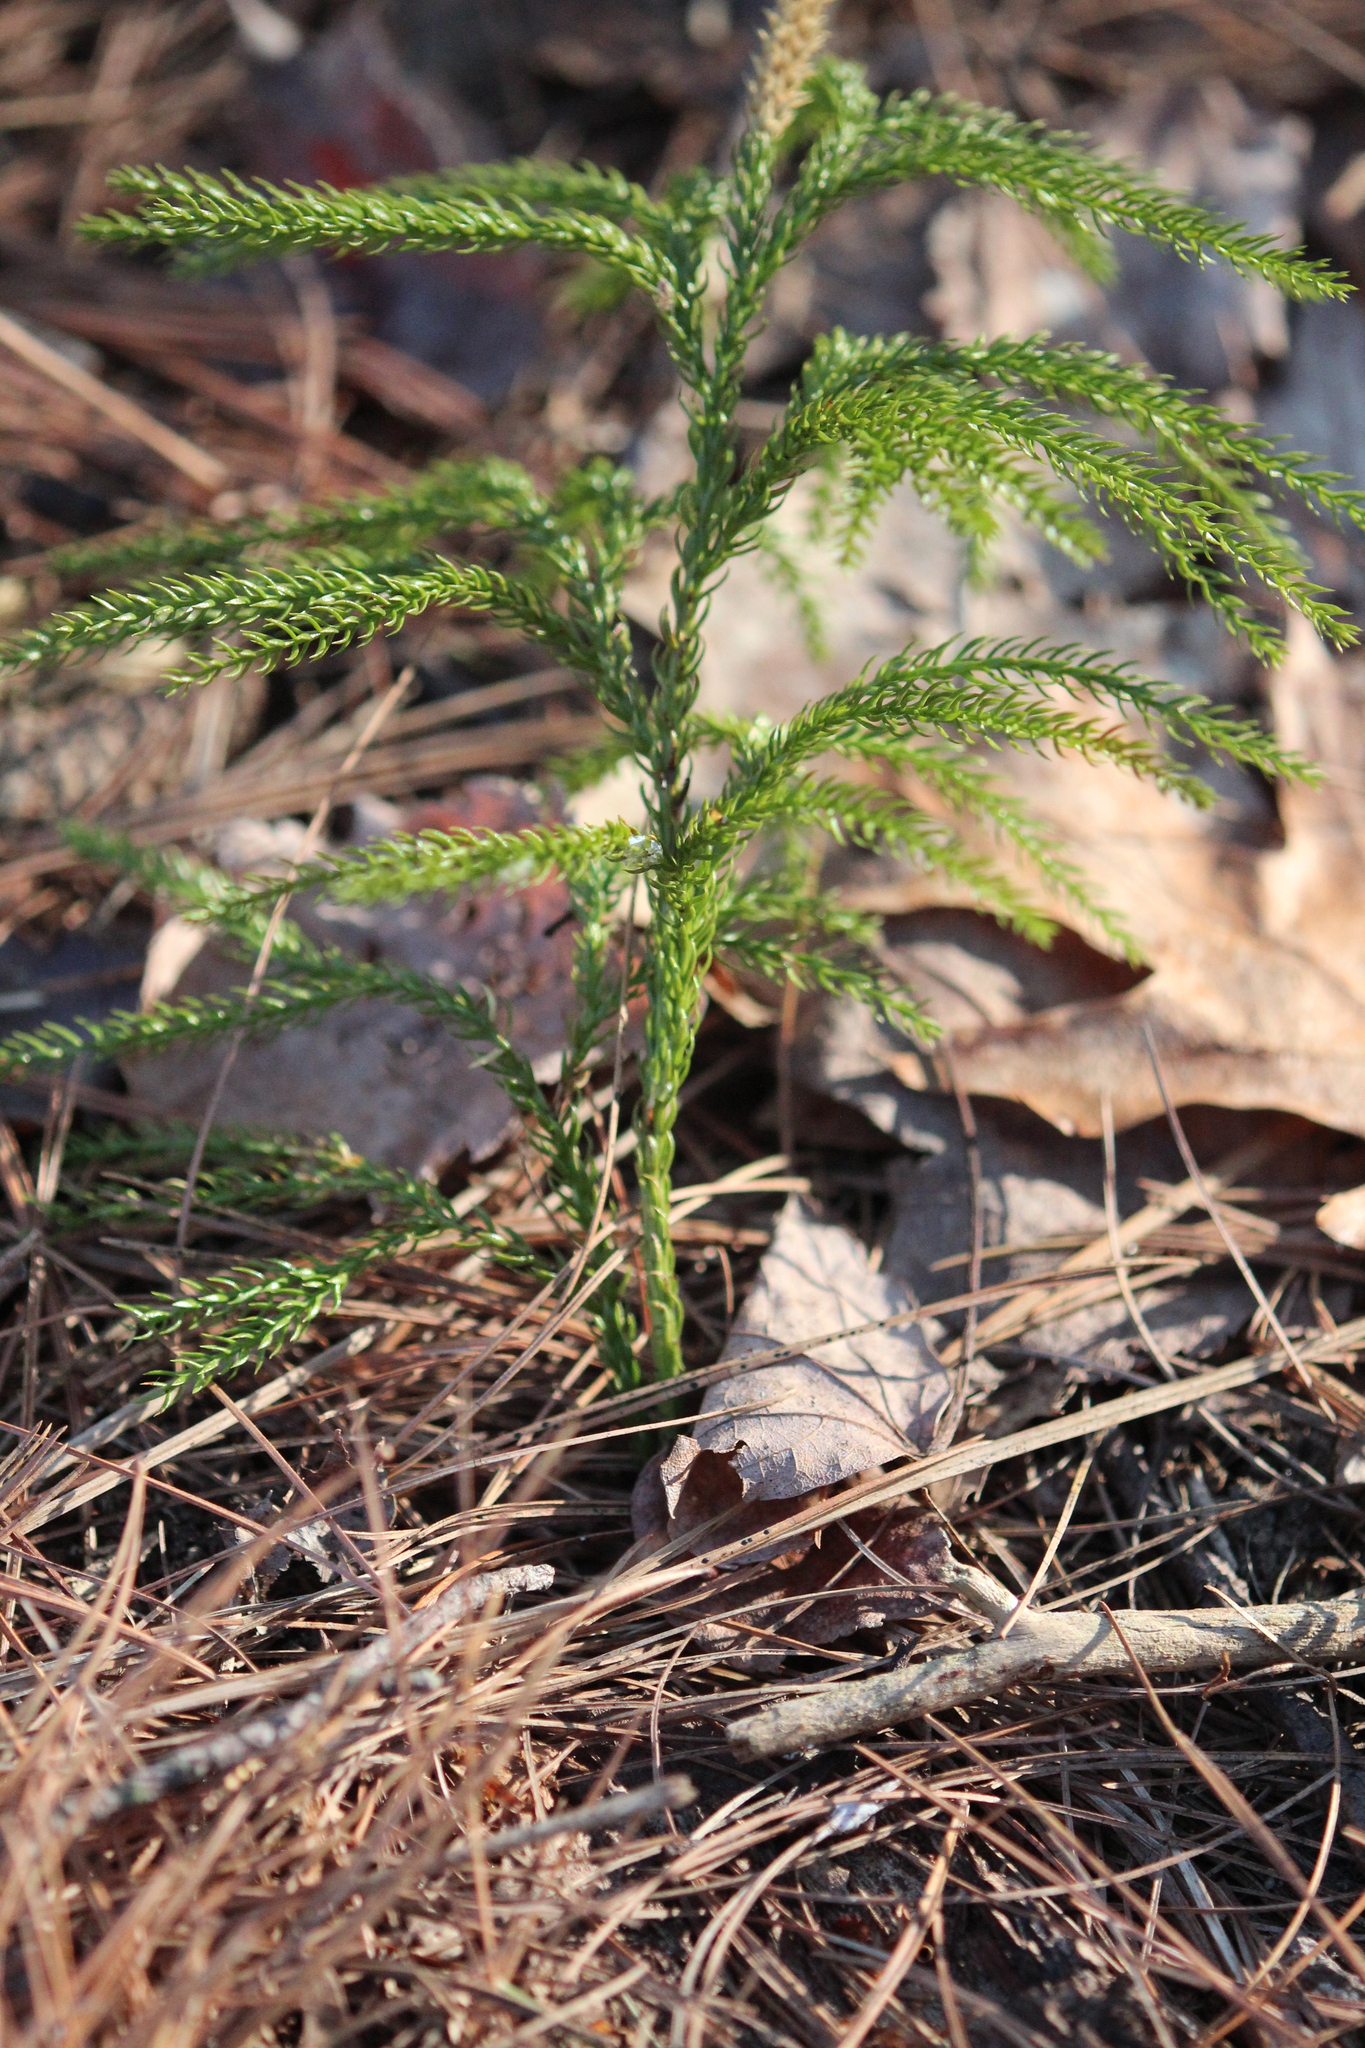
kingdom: Plantae
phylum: Tracheophyta
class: Lycopodiopsida
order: Lycopodiales
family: Lycopodiaceae
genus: Dendrolycopodium
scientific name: Dendrolycopodium hickeyi
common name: Hickey's clubmoss
